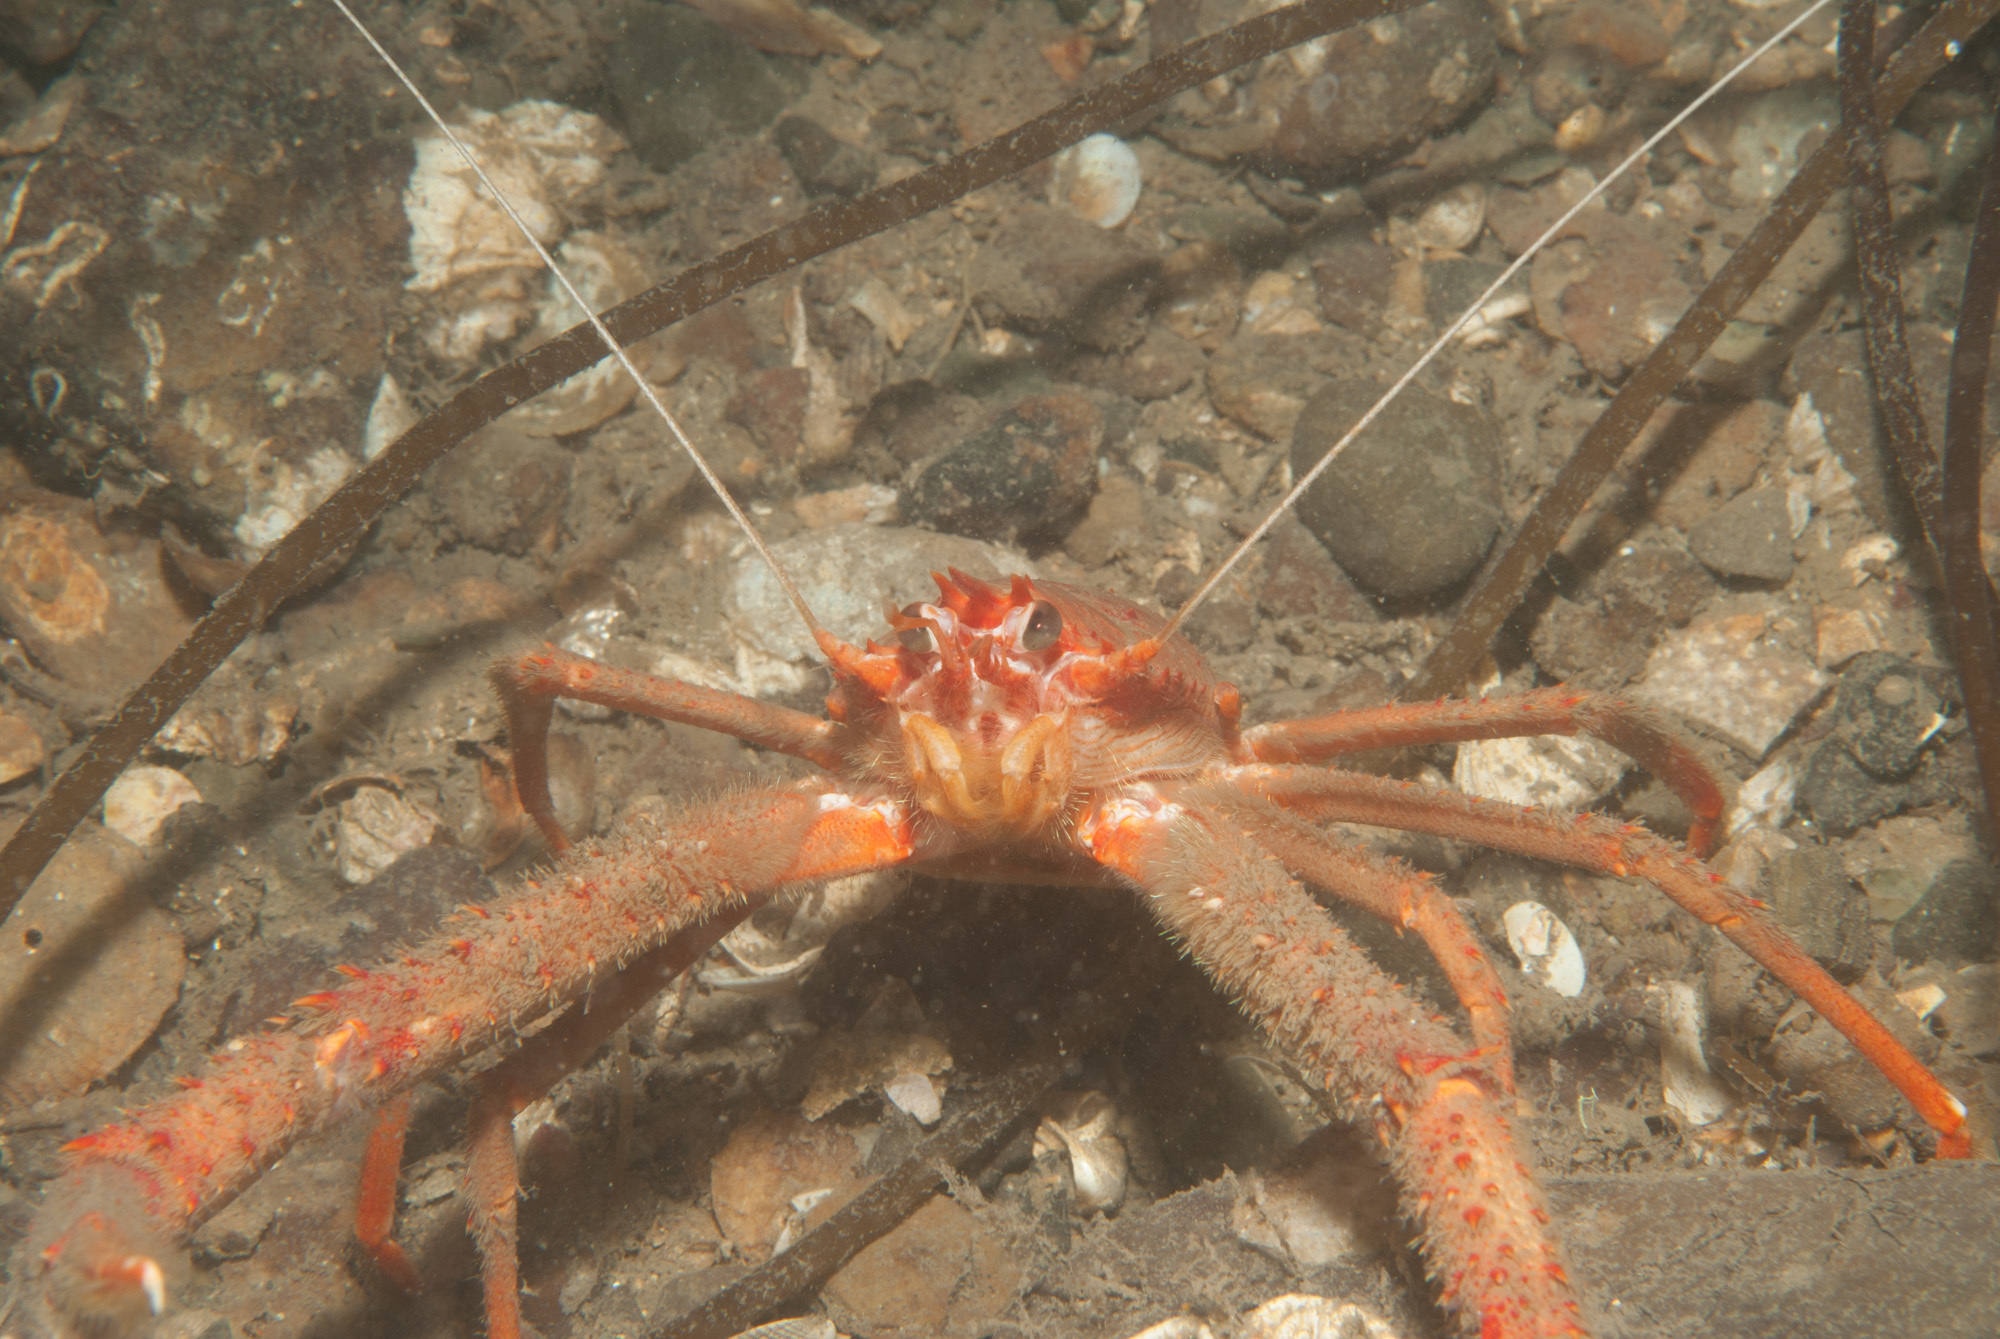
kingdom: Animalia
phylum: Arthropoda
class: Malacostraca
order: Decapoda
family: Munididae
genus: Munida
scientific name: Munida rugosa
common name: Rugose squat lobster
